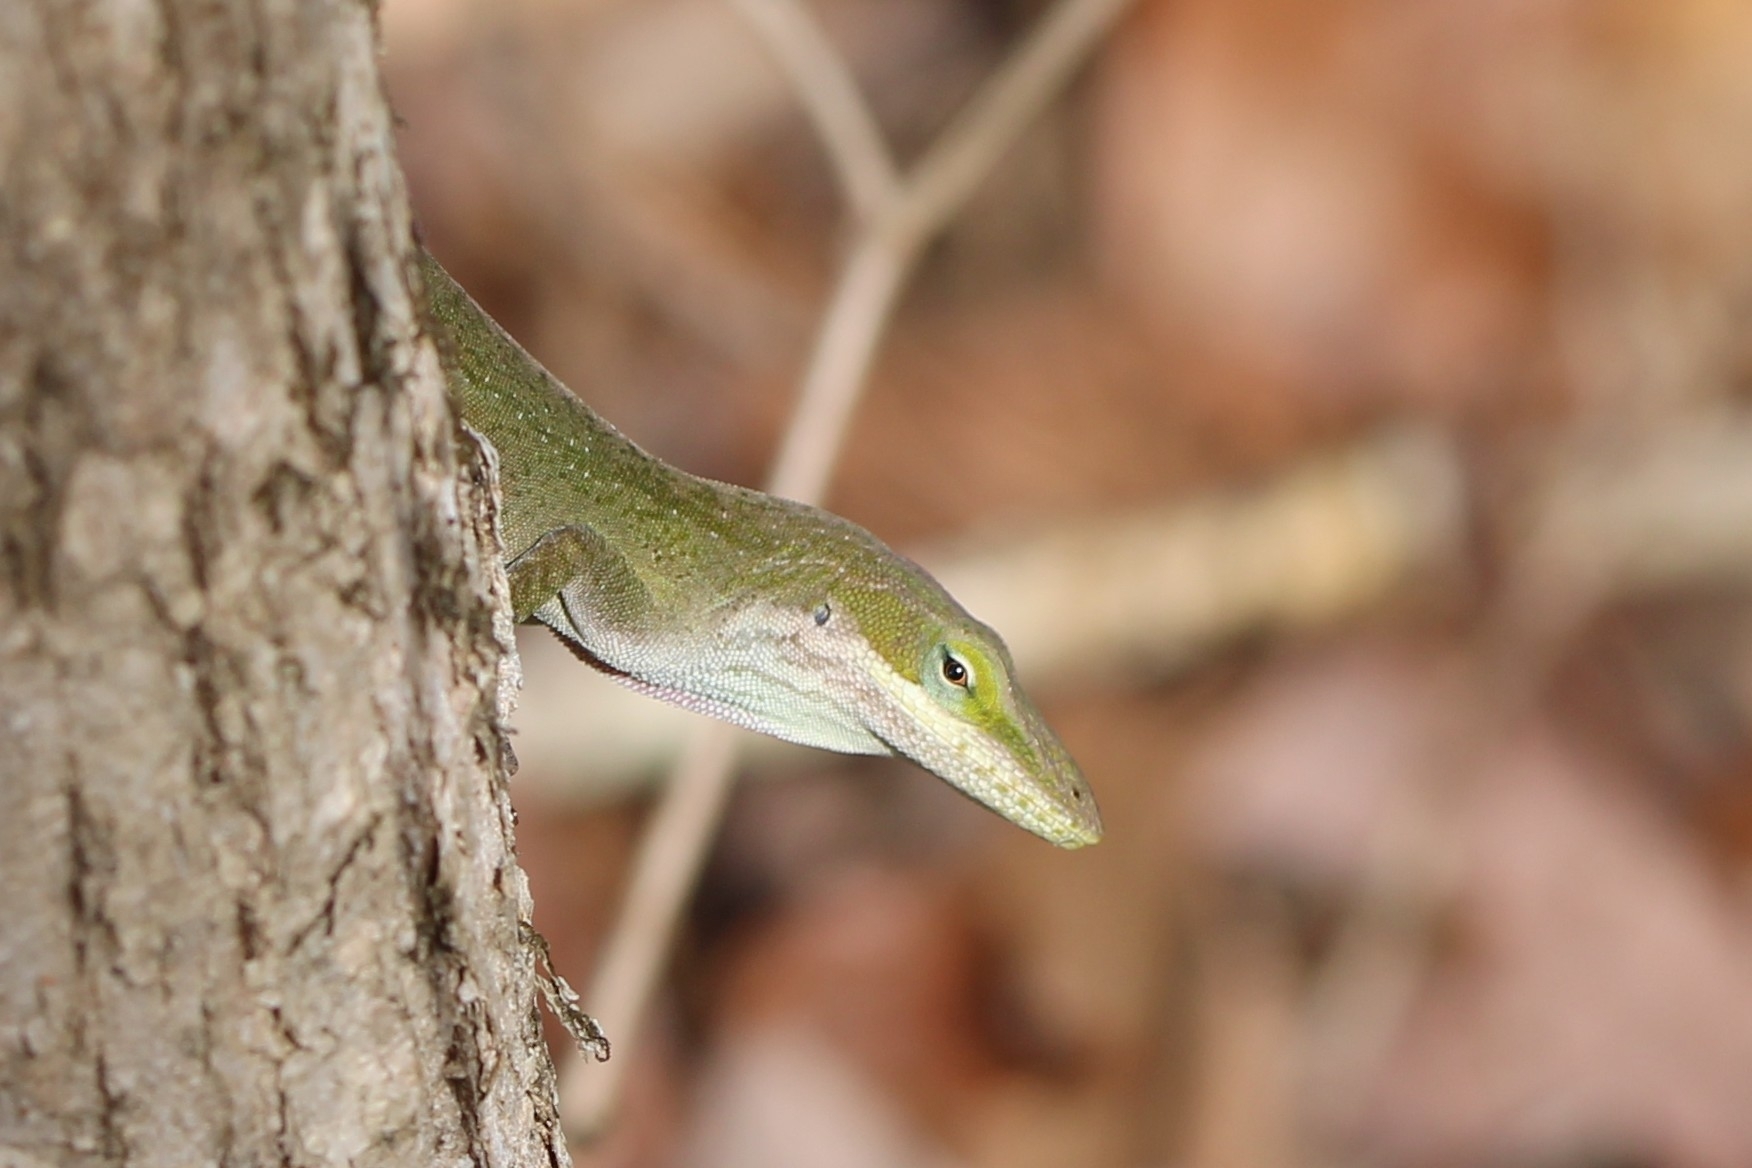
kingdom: Animalia
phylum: Chordata
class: Squamata
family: Dactyloidae
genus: Anolis
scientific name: Anolis carolinensis
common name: Green anole
